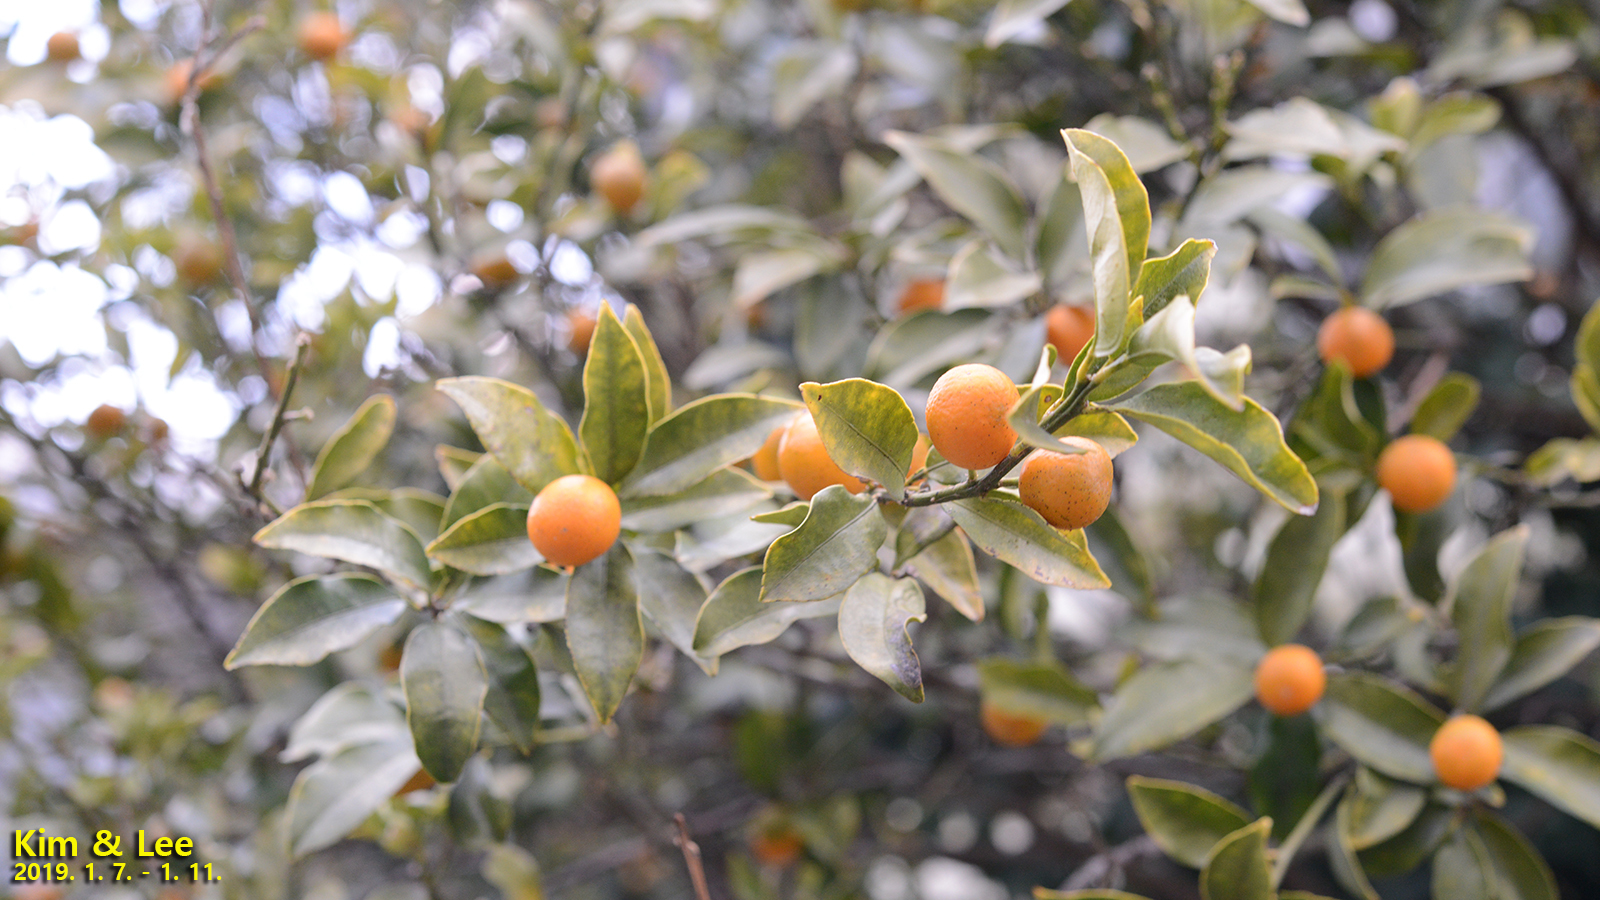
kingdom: Plantae
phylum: Tracheophyta
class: Magnoliopsida
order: Sapindales
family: Rutaceae
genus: Citrus
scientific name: Citrus japonica
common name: Kumquat
